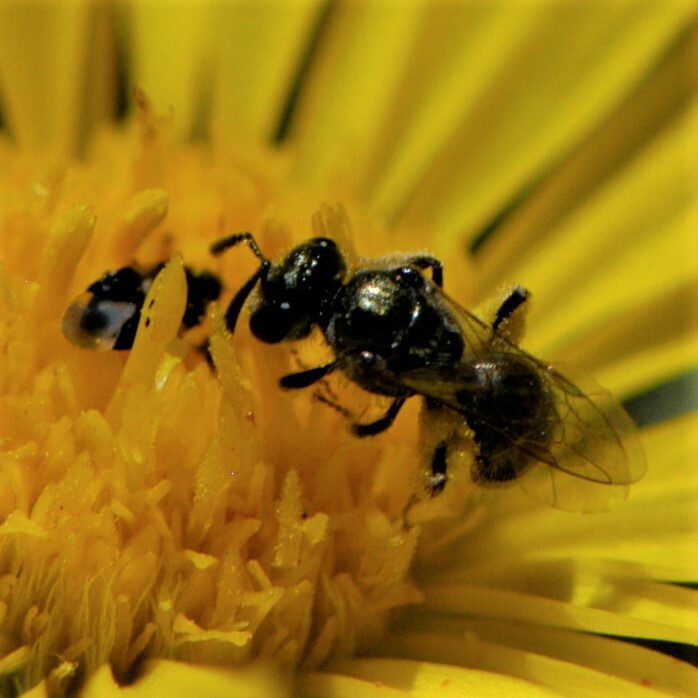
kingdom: Animalia
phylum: Arthropoda
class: Insecta
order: Hymenoptera
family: Halictidae
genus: Dialictus
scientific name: Dialictus
